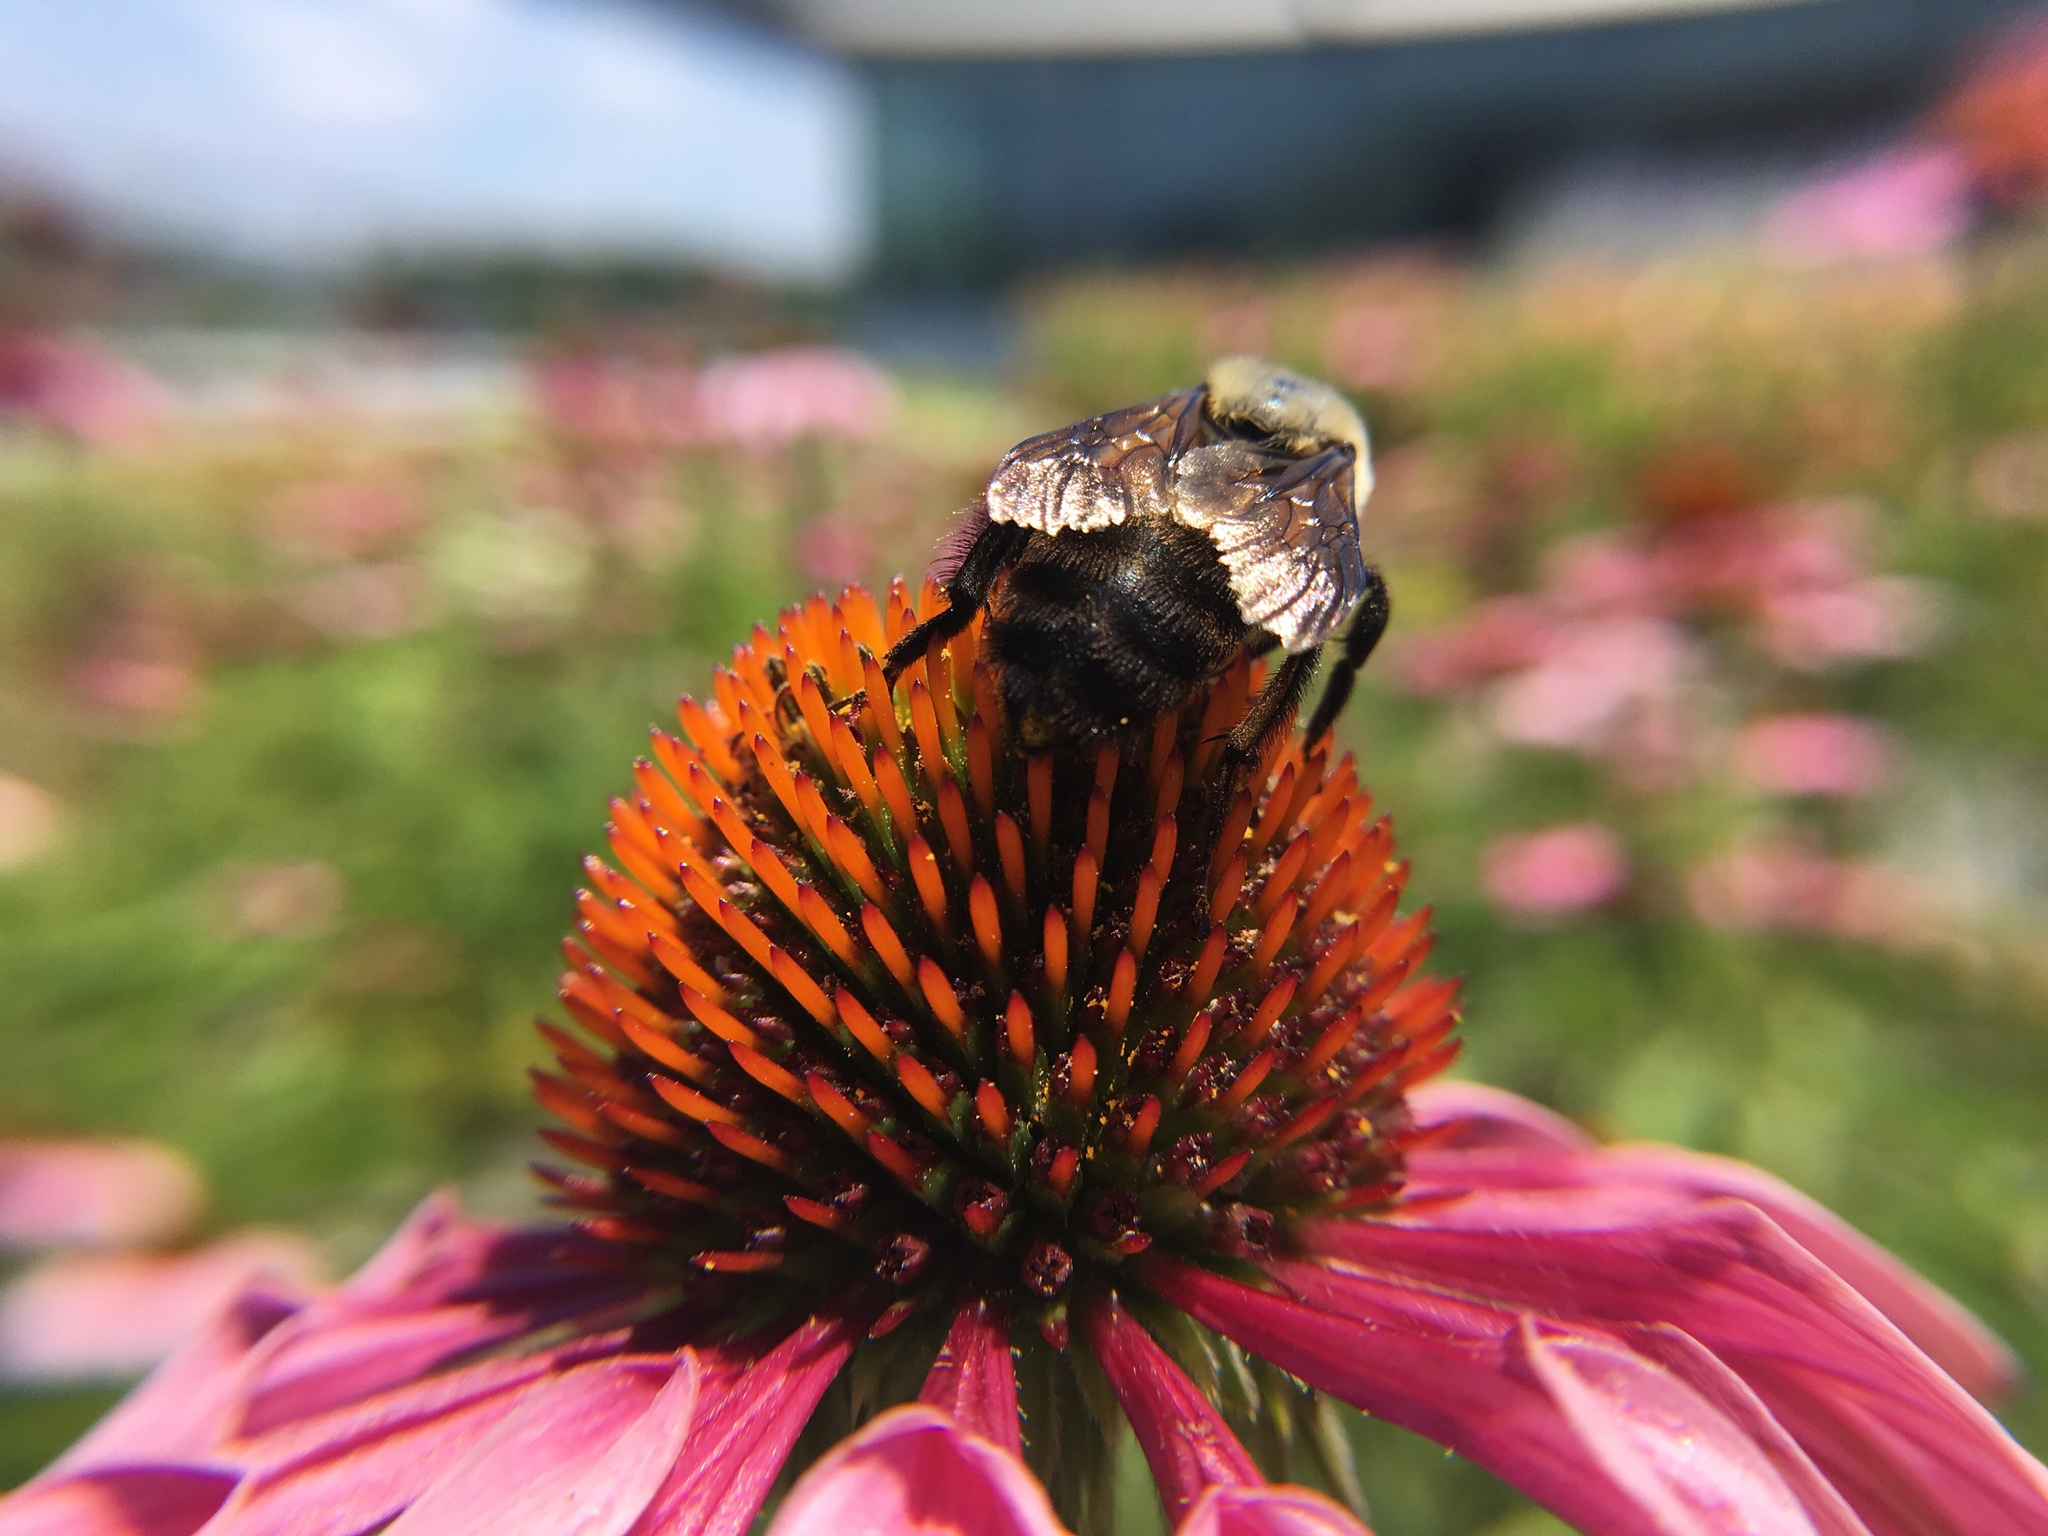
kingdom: Animalia
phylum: Arthropoda
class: Insecta
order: Hymenoptera
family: Apidae
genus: Bombus
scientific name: Bombus griseocollis
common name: Brown-belted bumble bee
